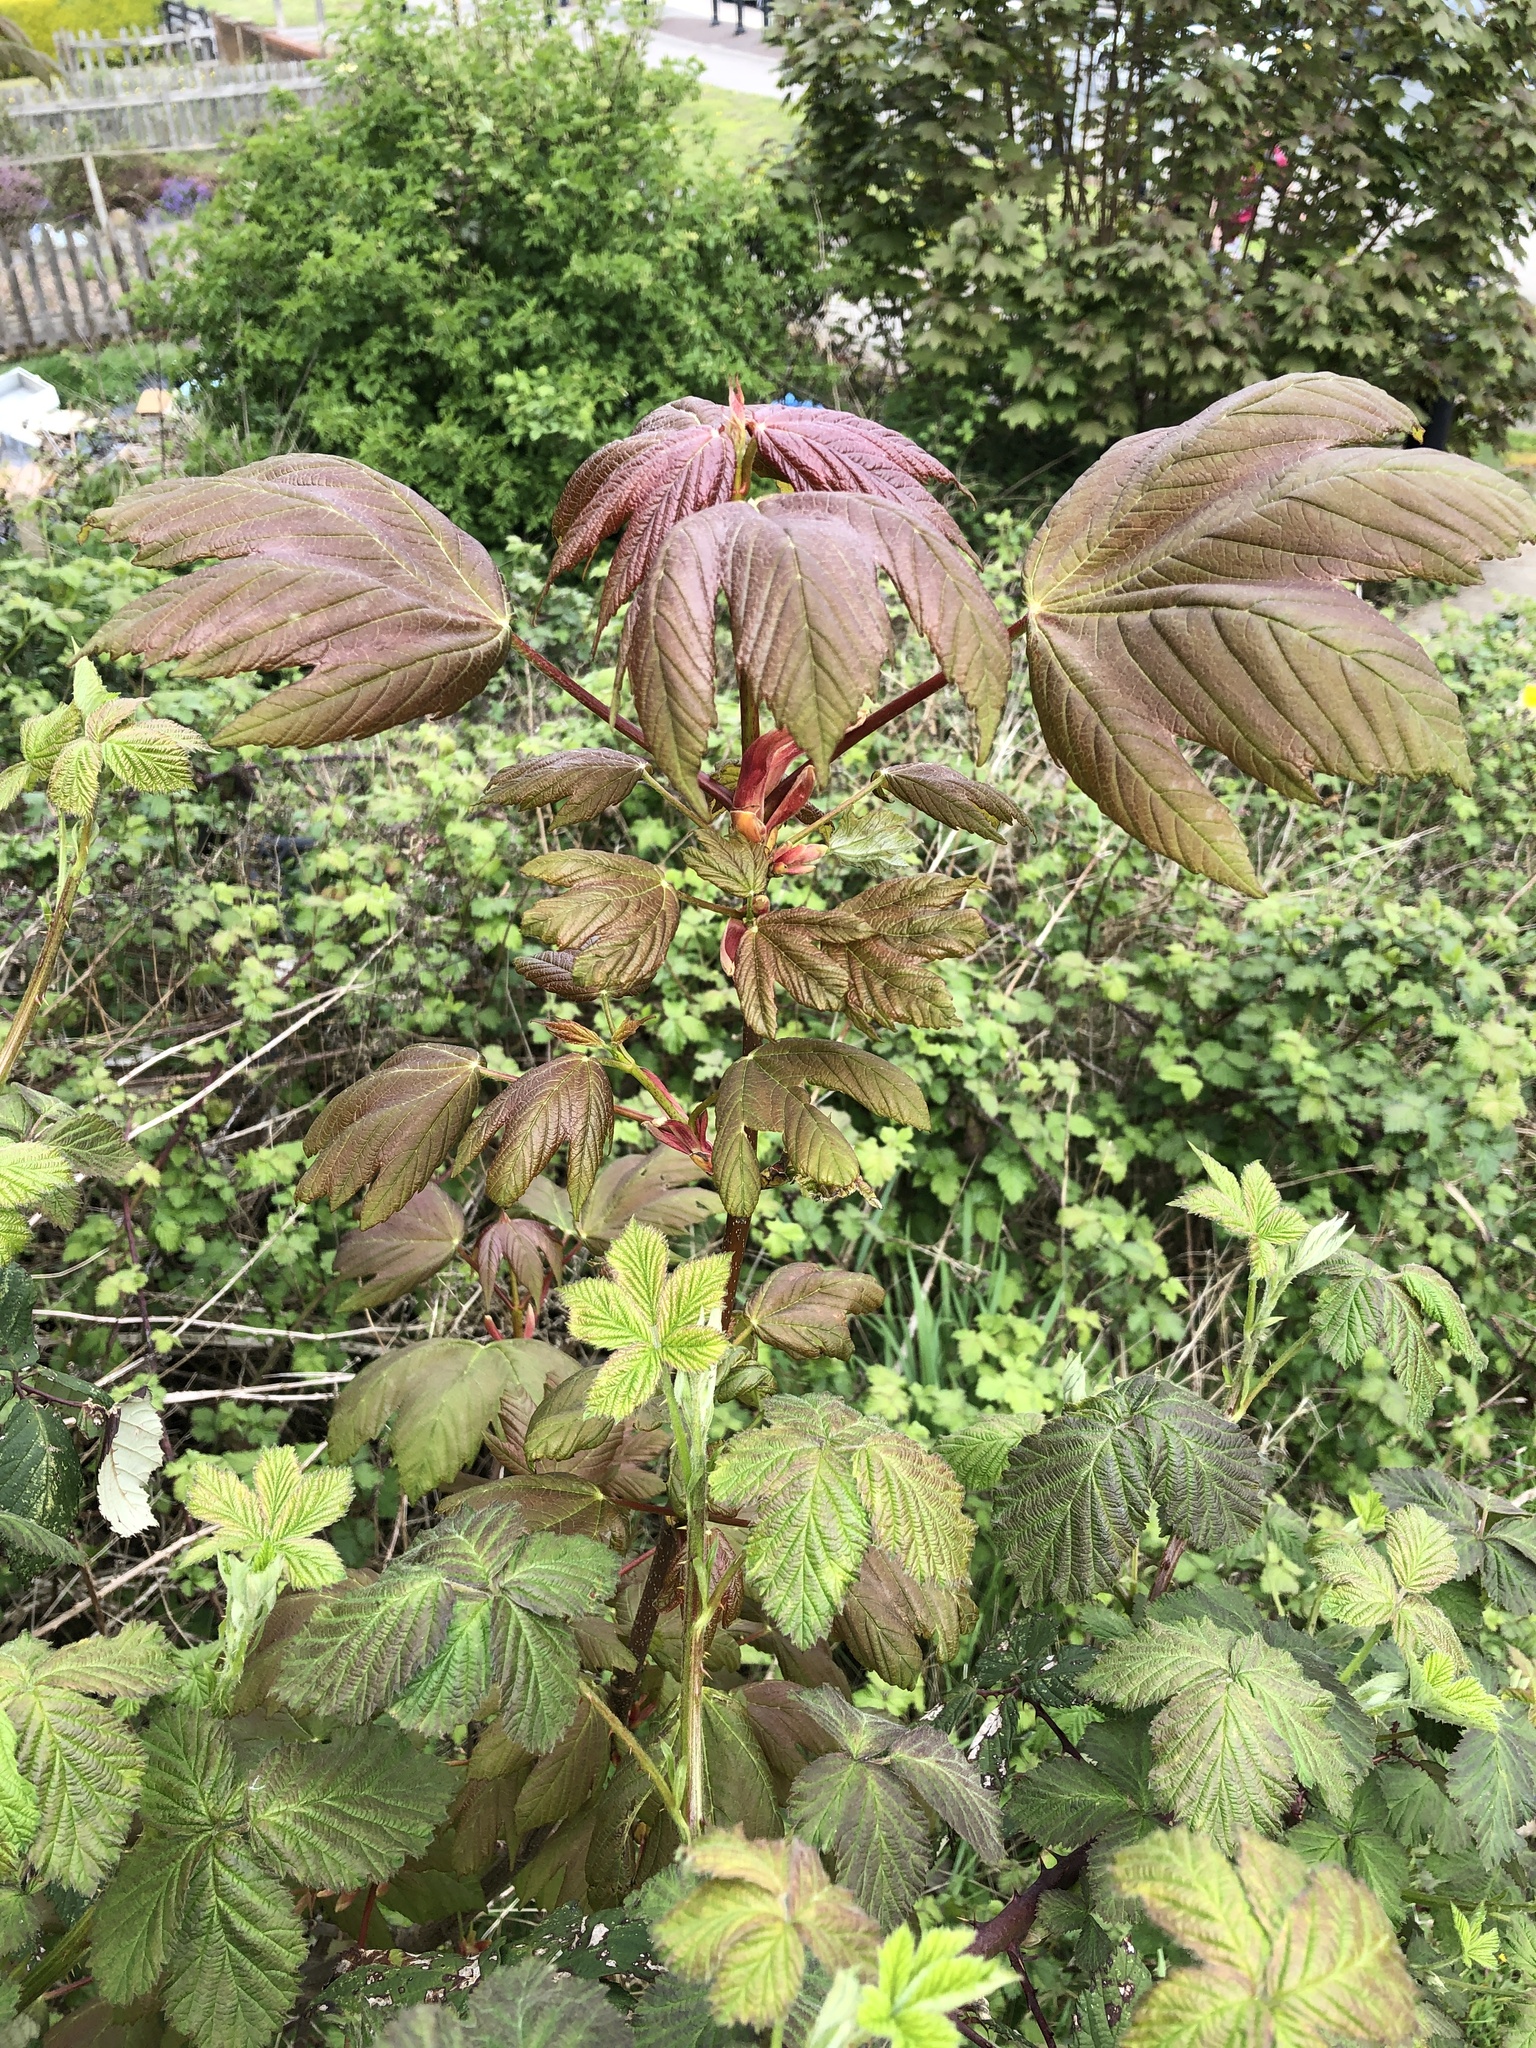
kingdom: Plantae
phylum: Tracheophyta
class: Magnoliopsida
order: Sapindales
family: Sapindaceae
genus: Acer
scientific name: Acer pseudoplatanus
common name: Sycamore
